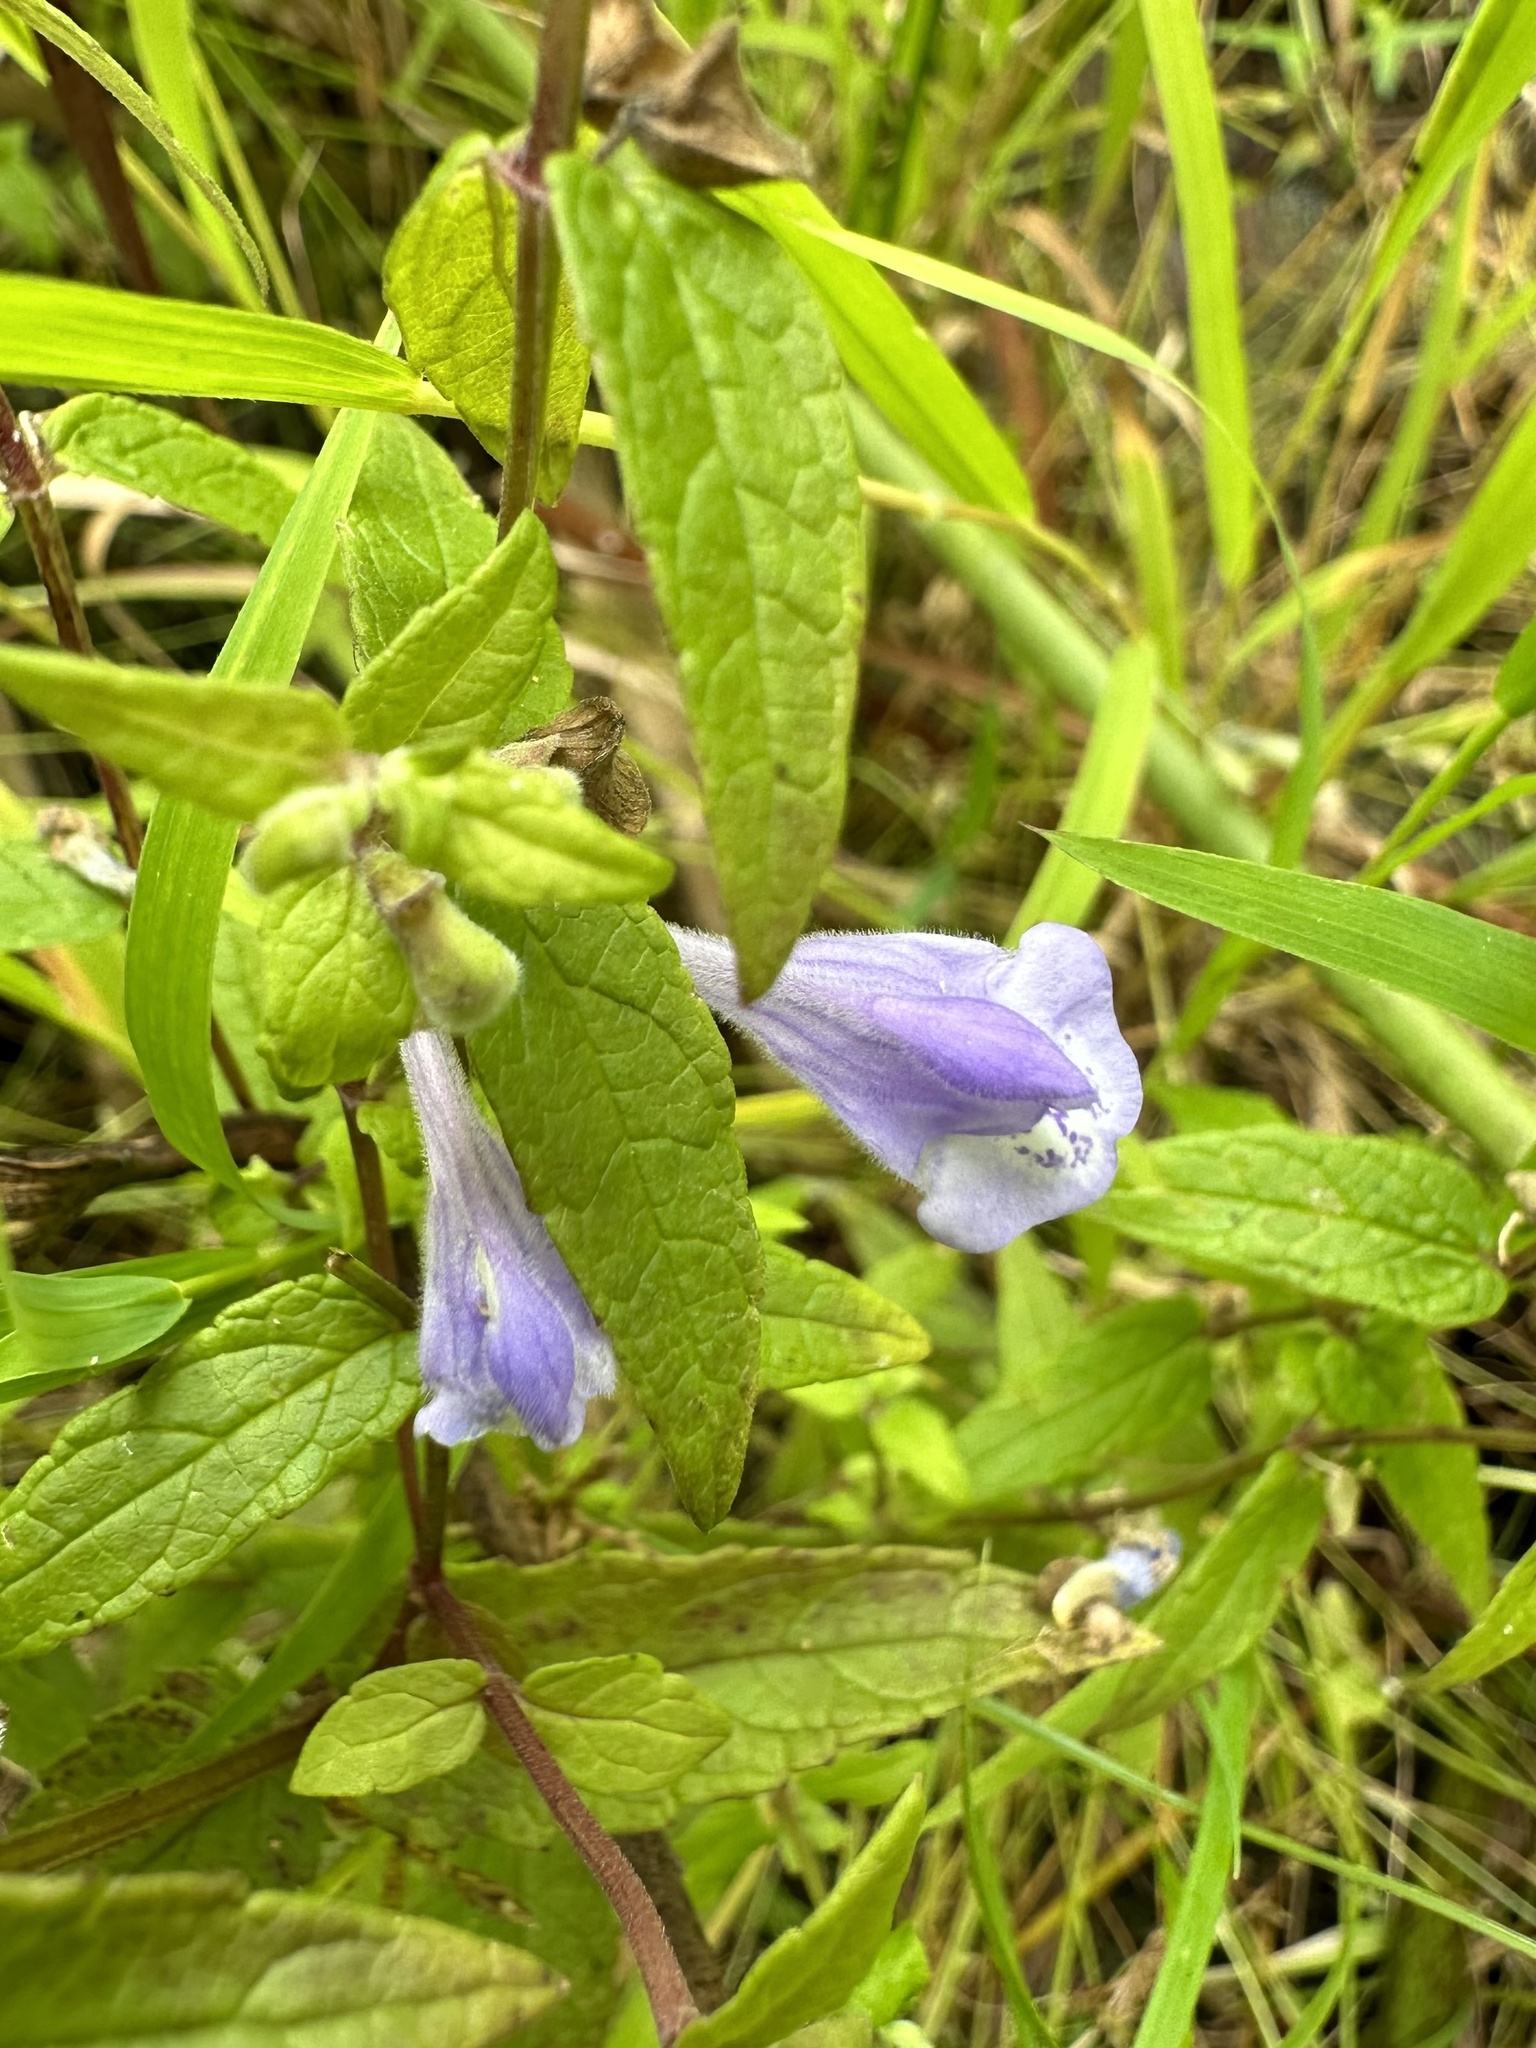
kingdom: Plantae
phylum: Tracheophyta
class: Magnoliopsida
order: Lamiales
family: Lamiaceae
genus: Scutellaria
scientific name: Scutellaria galericulata
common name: Skullcap
